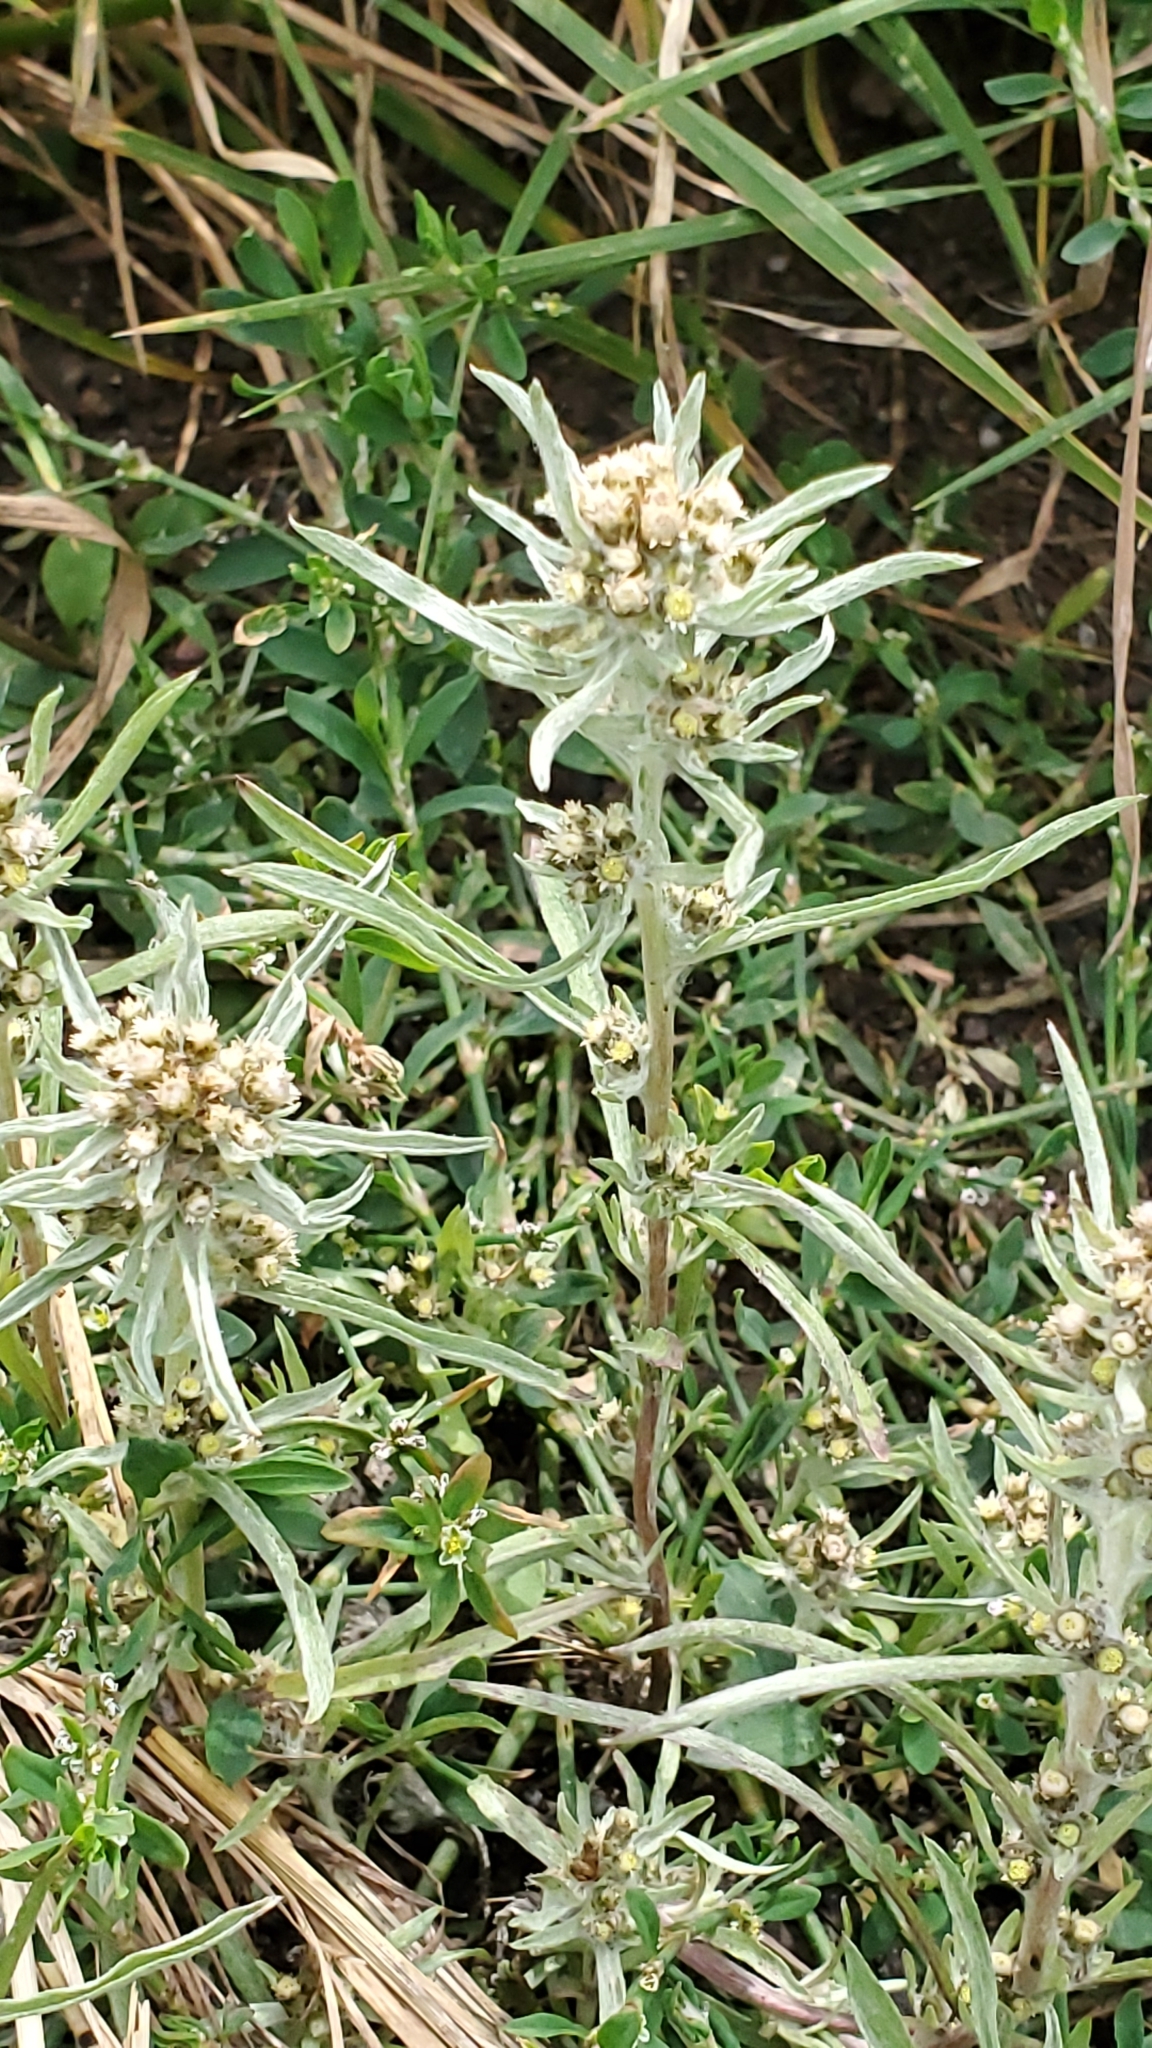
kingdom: Plantae
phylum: Tracheophyta
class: Magnoliopsida
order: Asterales
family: Asteraceae
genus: Gnaphalium
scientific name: Gnaphalium exilifolium
